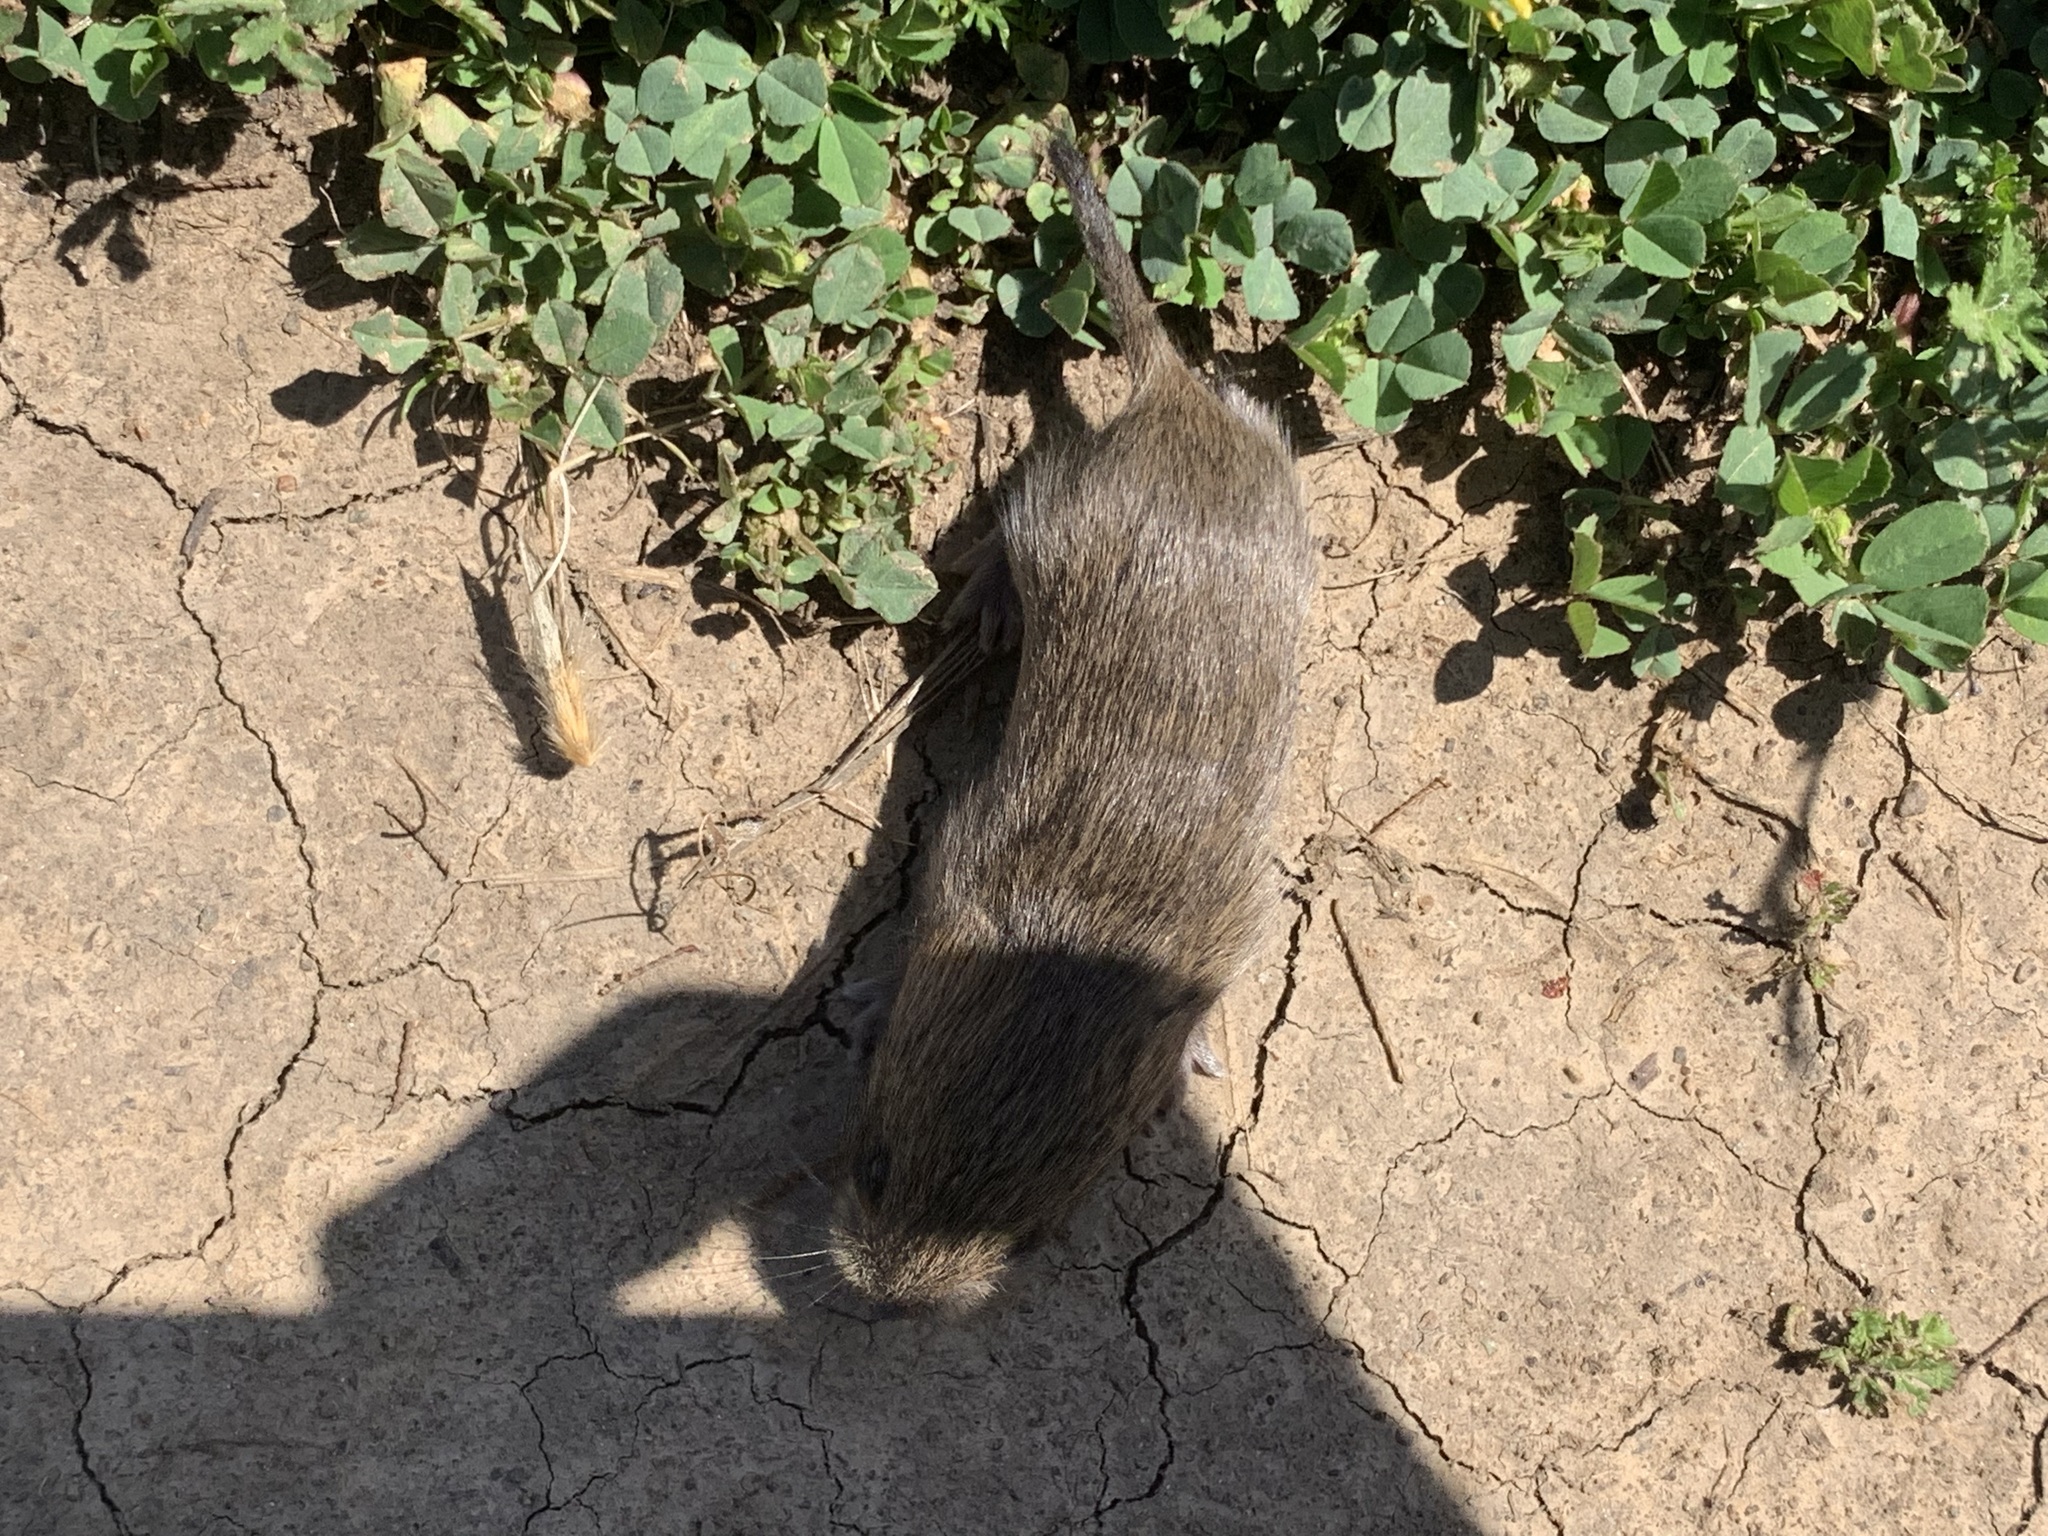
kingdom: Animalia
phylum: Chordata
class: Mammalia
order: Rodentia
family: Cricetidae
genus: Microtus
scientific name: Microtus californicus
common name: California vole
